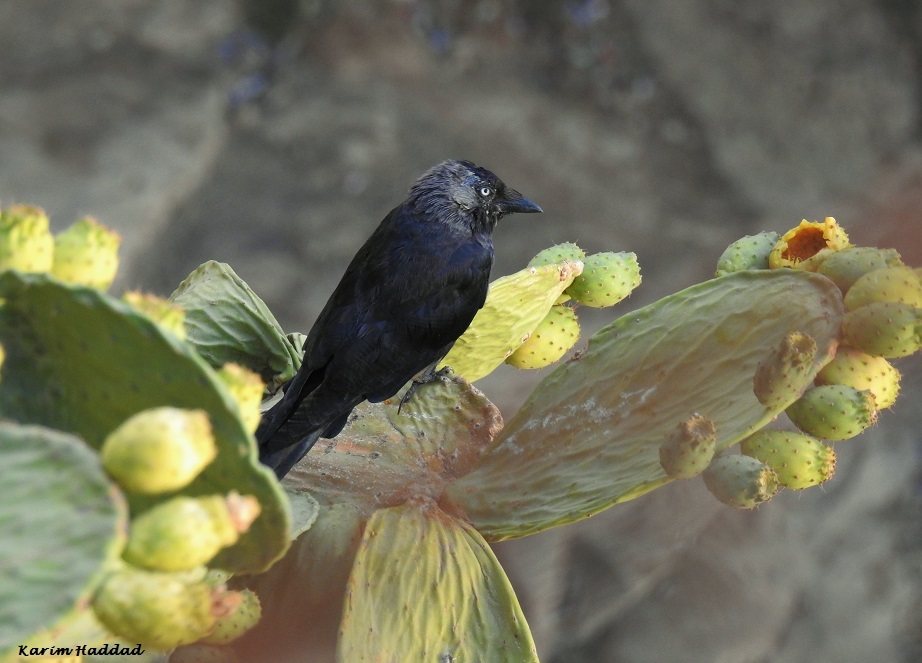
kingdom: Animalia
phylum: Chordata
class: Aves
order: Passeriformes
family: Corvidae
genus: Coloeus
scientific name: Coloeus monedula
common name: Western jackdaw
